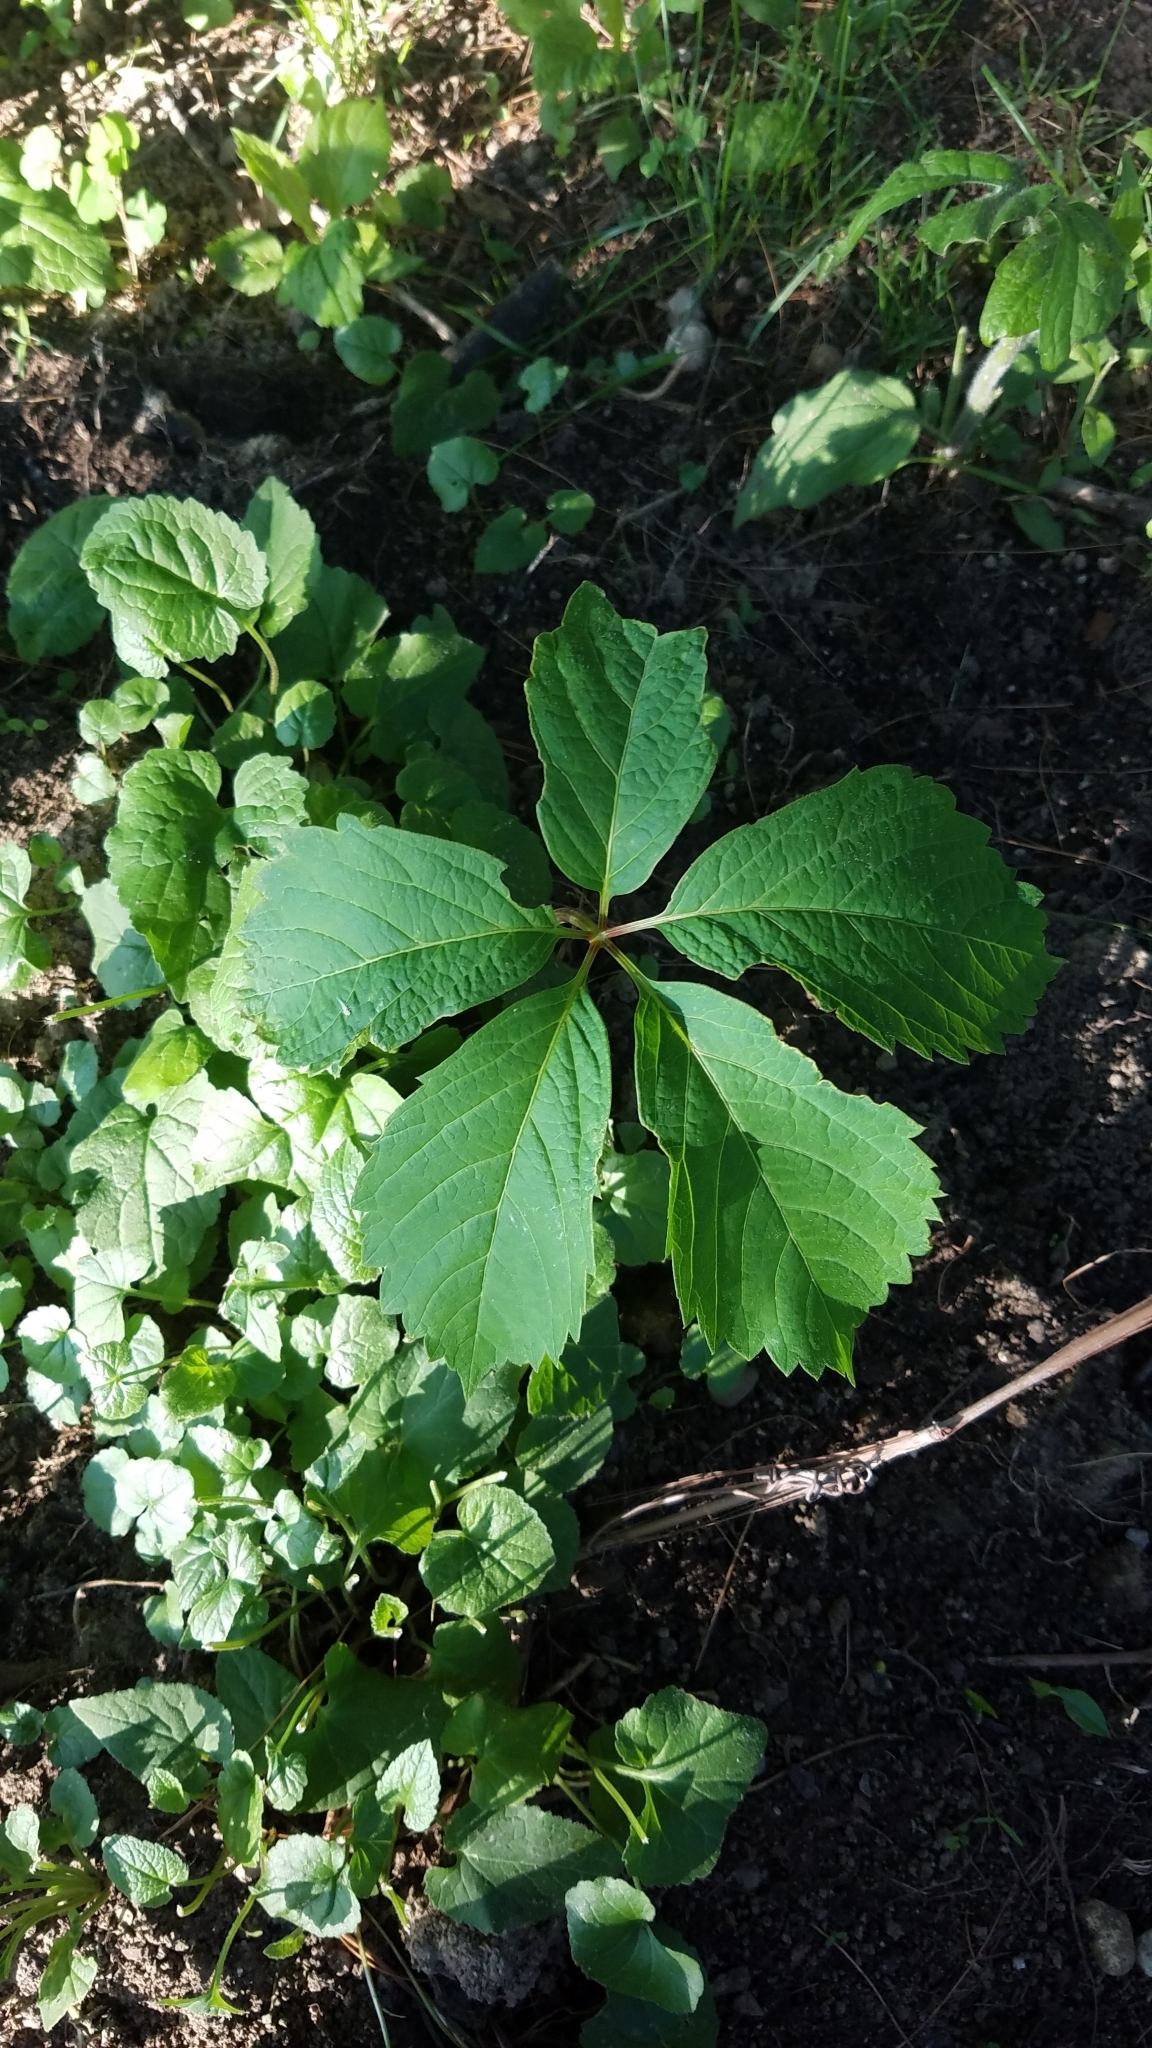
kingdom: Plantae
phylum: Tracheophyta
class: Magnoliopsida
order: Vitales
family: Vitaceae
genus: Parthenocissus
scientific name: Parthenocissus inserta
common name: False virginia-creeper
